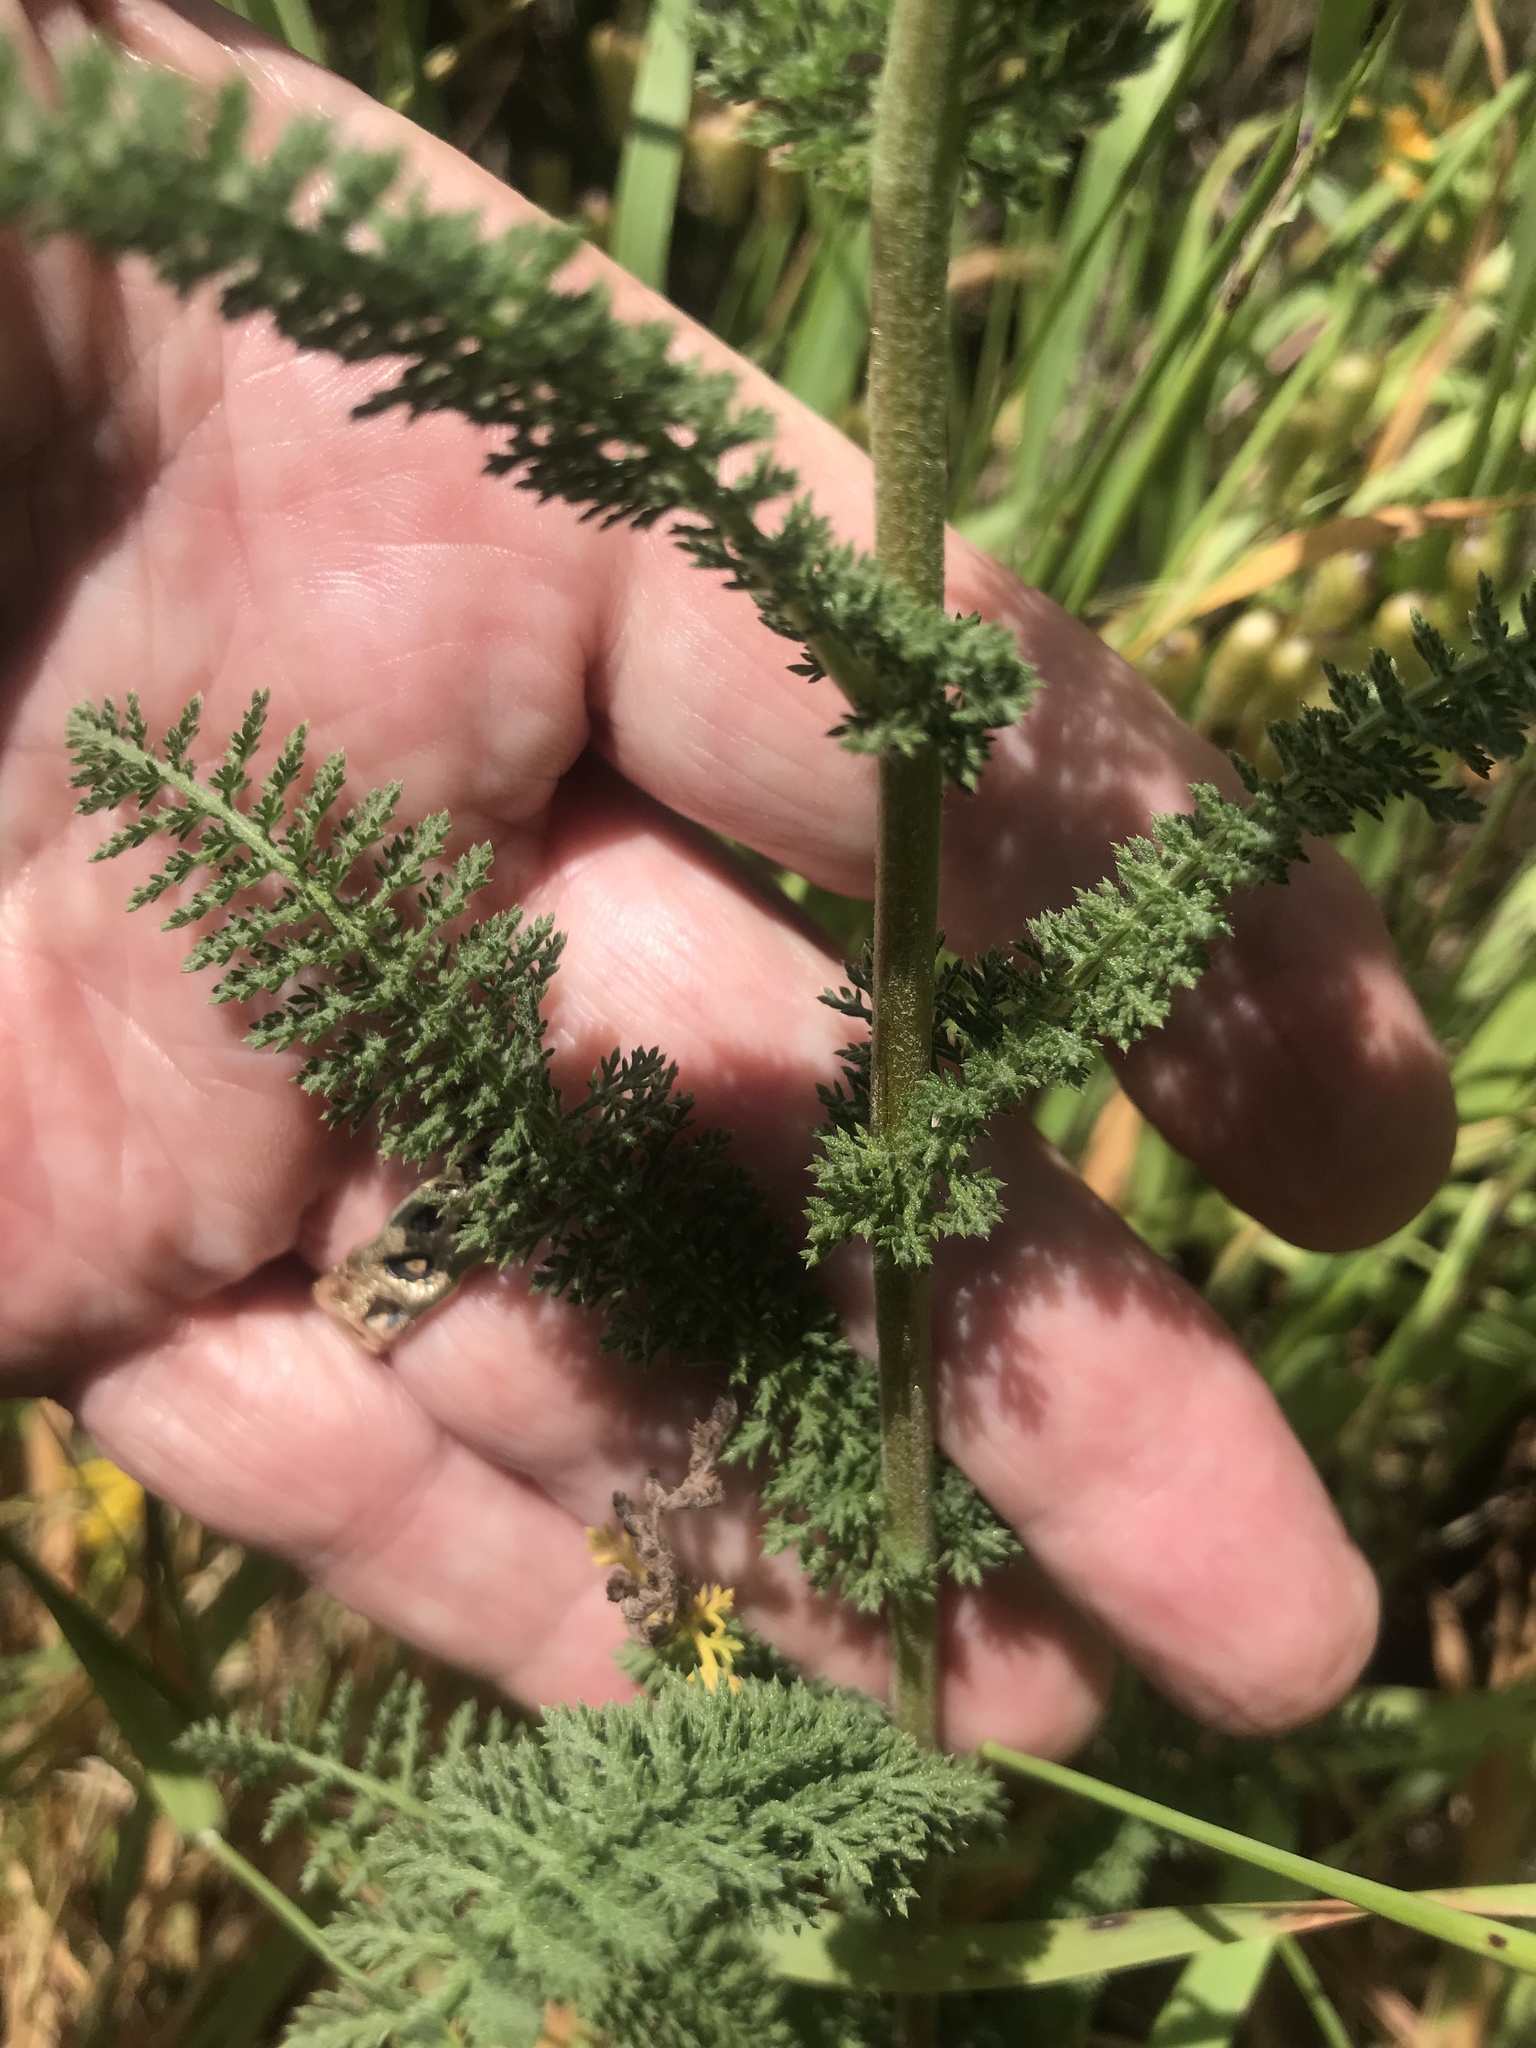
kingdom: Plantae
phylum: Tracheophyta
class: Magnoliopsida
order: Asterales
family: Asteraceae
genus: Achillea
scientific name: Achillea millefolium
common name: Yarrow
